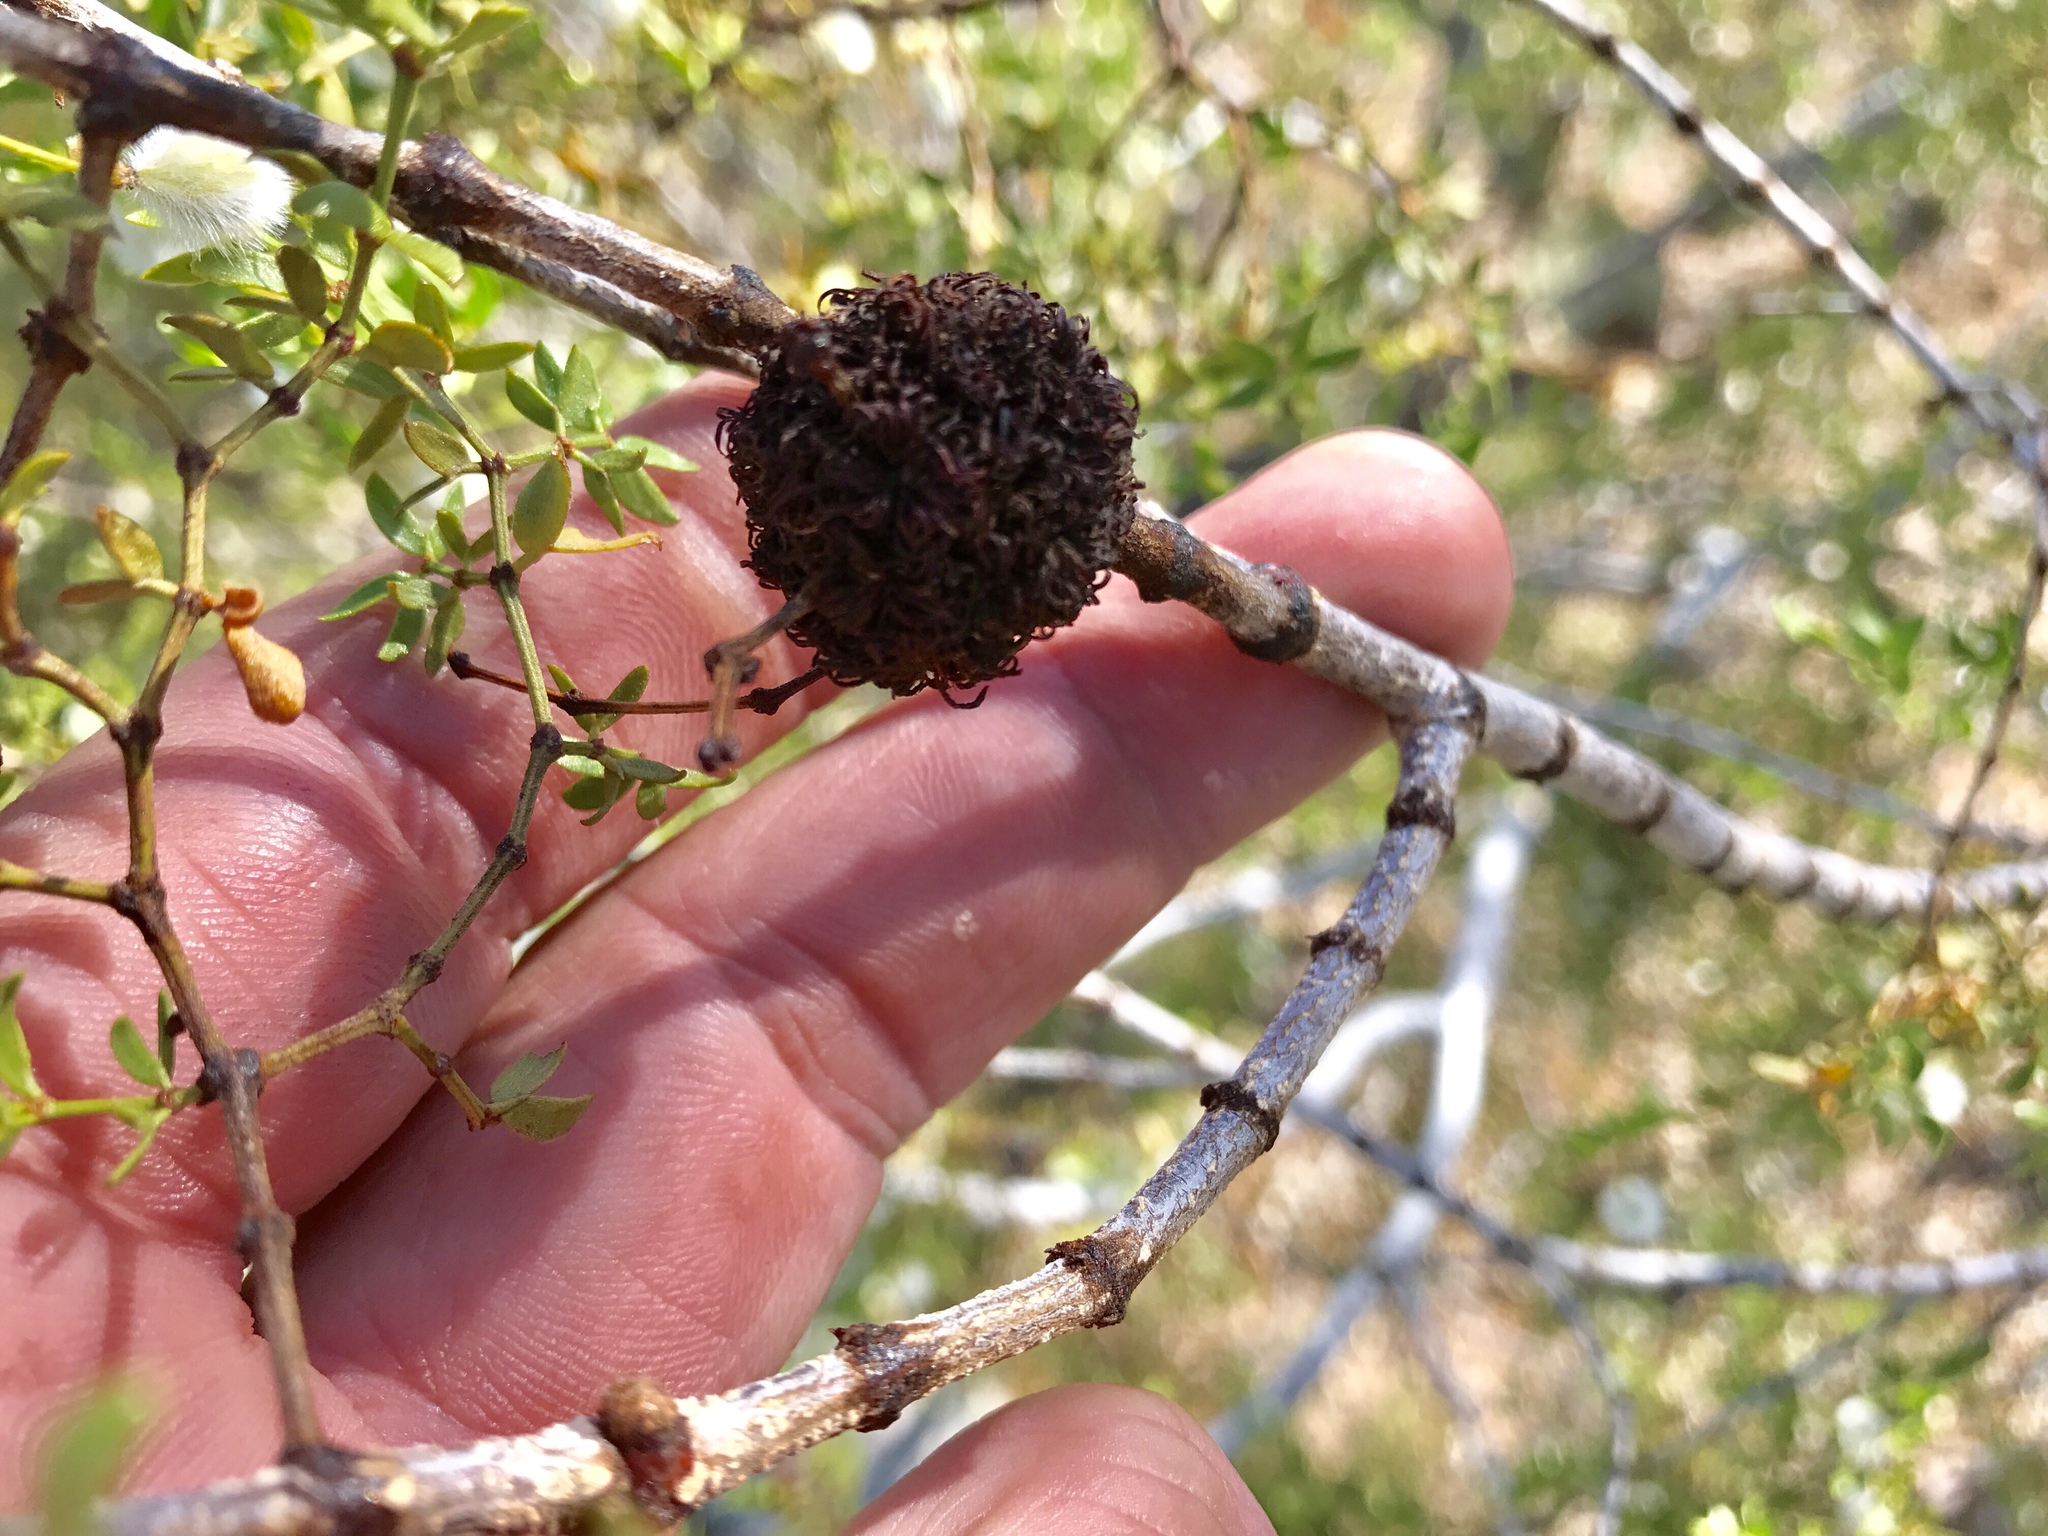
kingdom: Animalia
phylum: Arthropoda
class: Insecta
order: Diptera
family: Cecidomyiidae
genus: Asphondylia
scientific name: Asphondylia auripila
